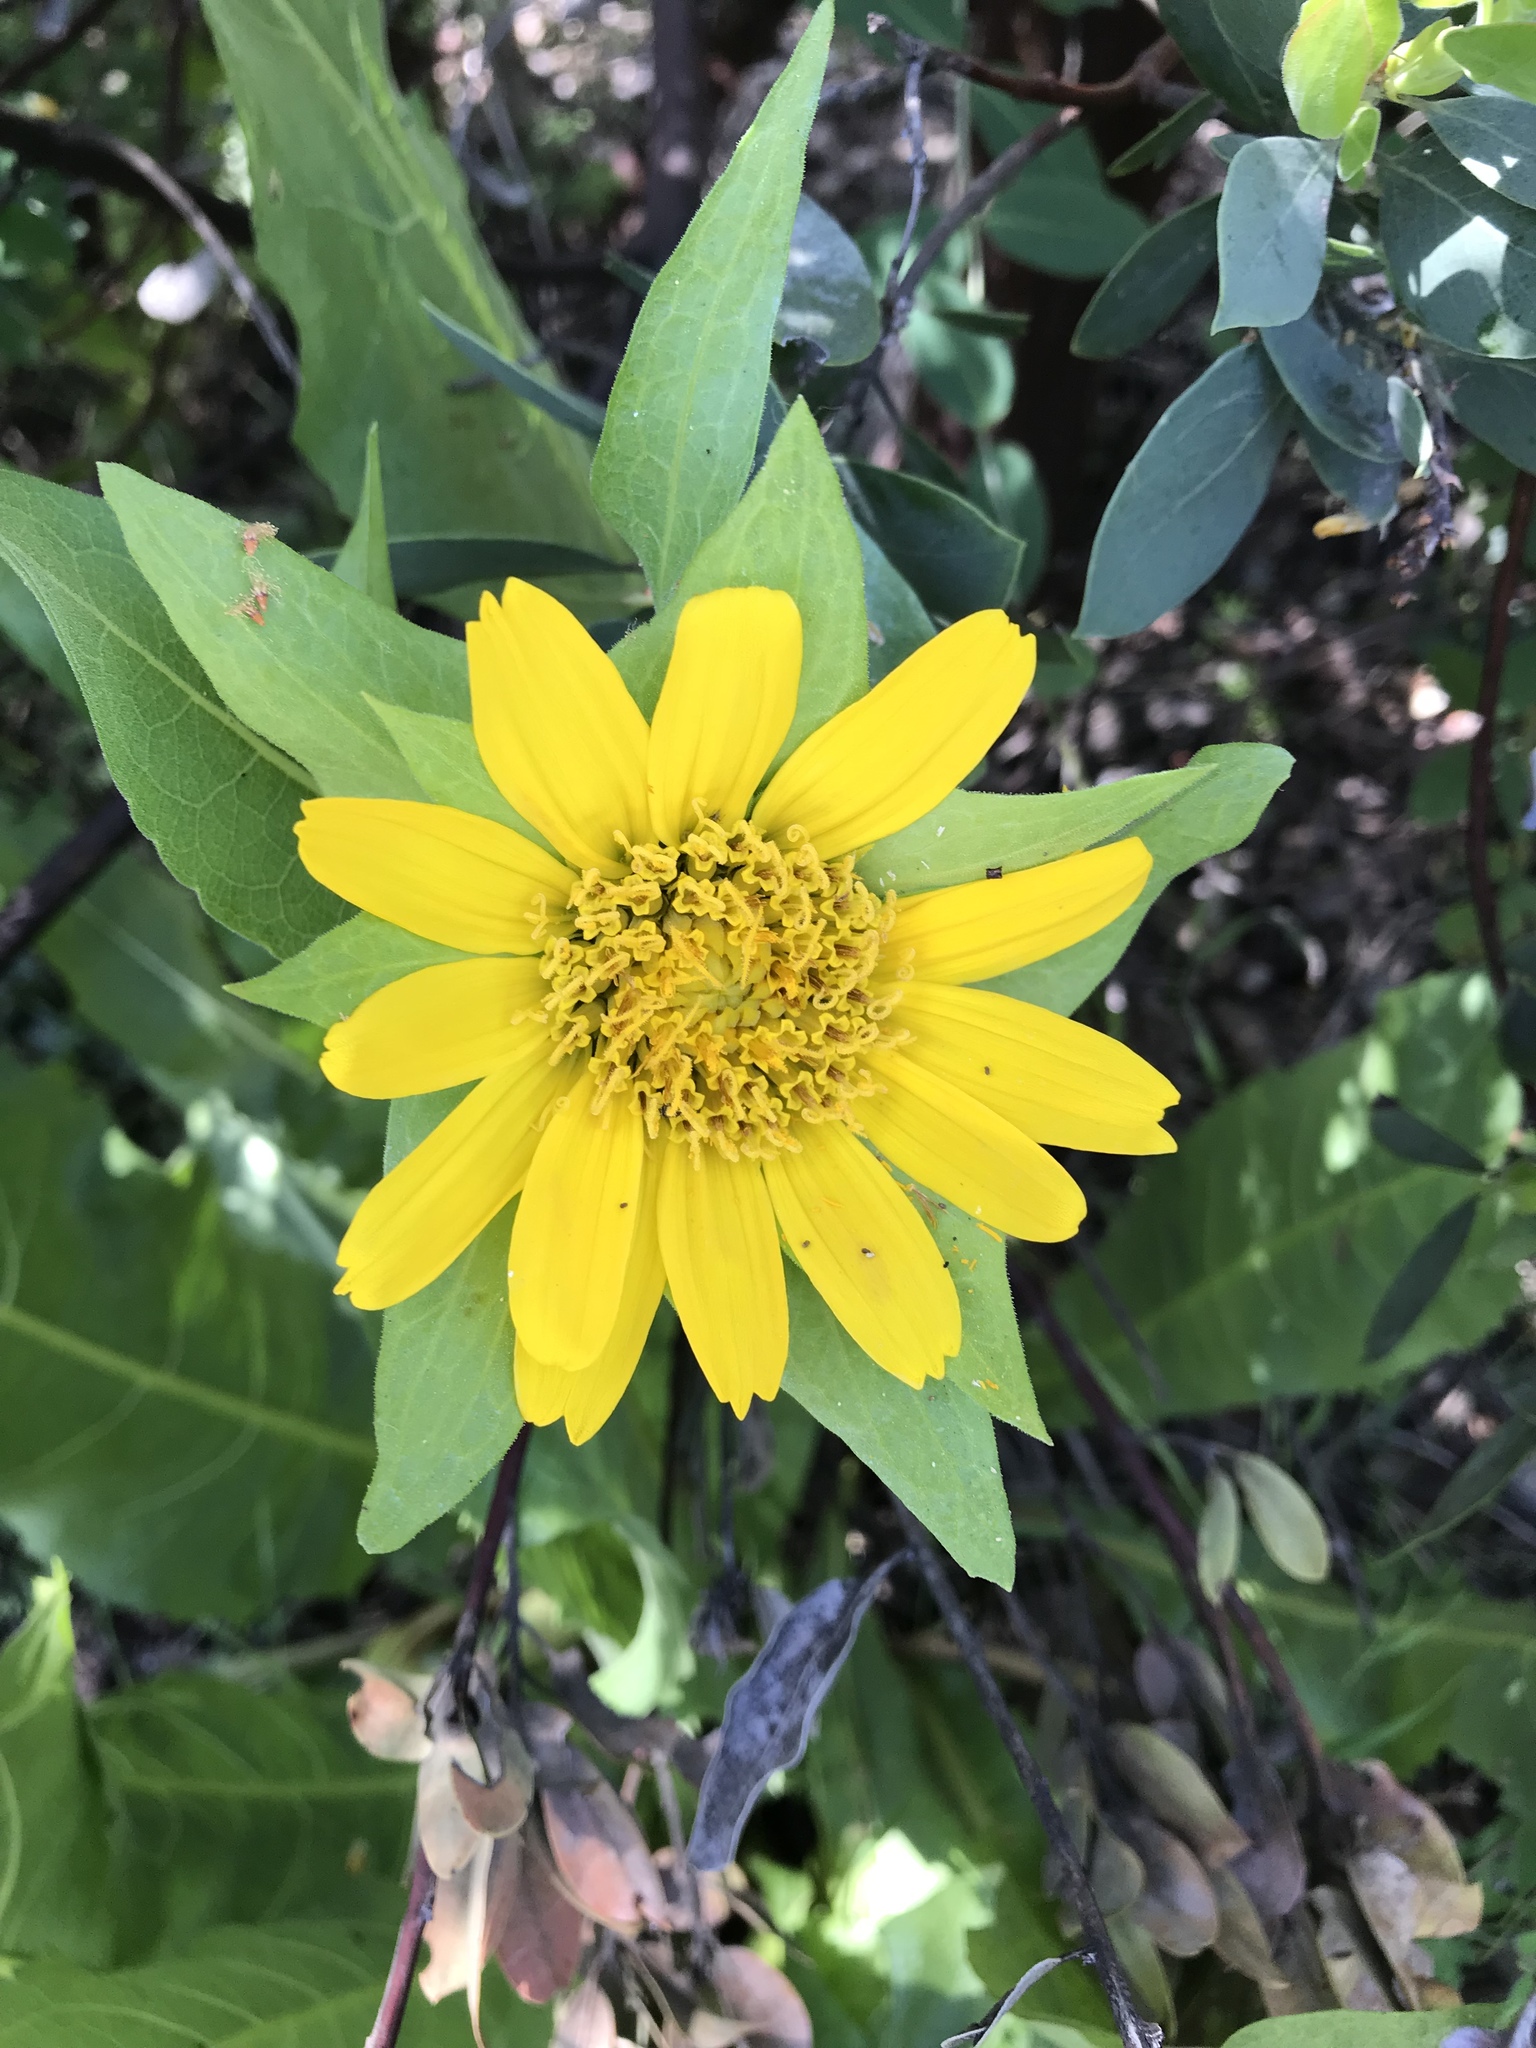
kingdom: Plantae
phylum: Tracheophyta
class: Magnoliopsida
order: Asterales
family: Asteraceae
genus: Wyethia
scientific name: Wyethia glabra
